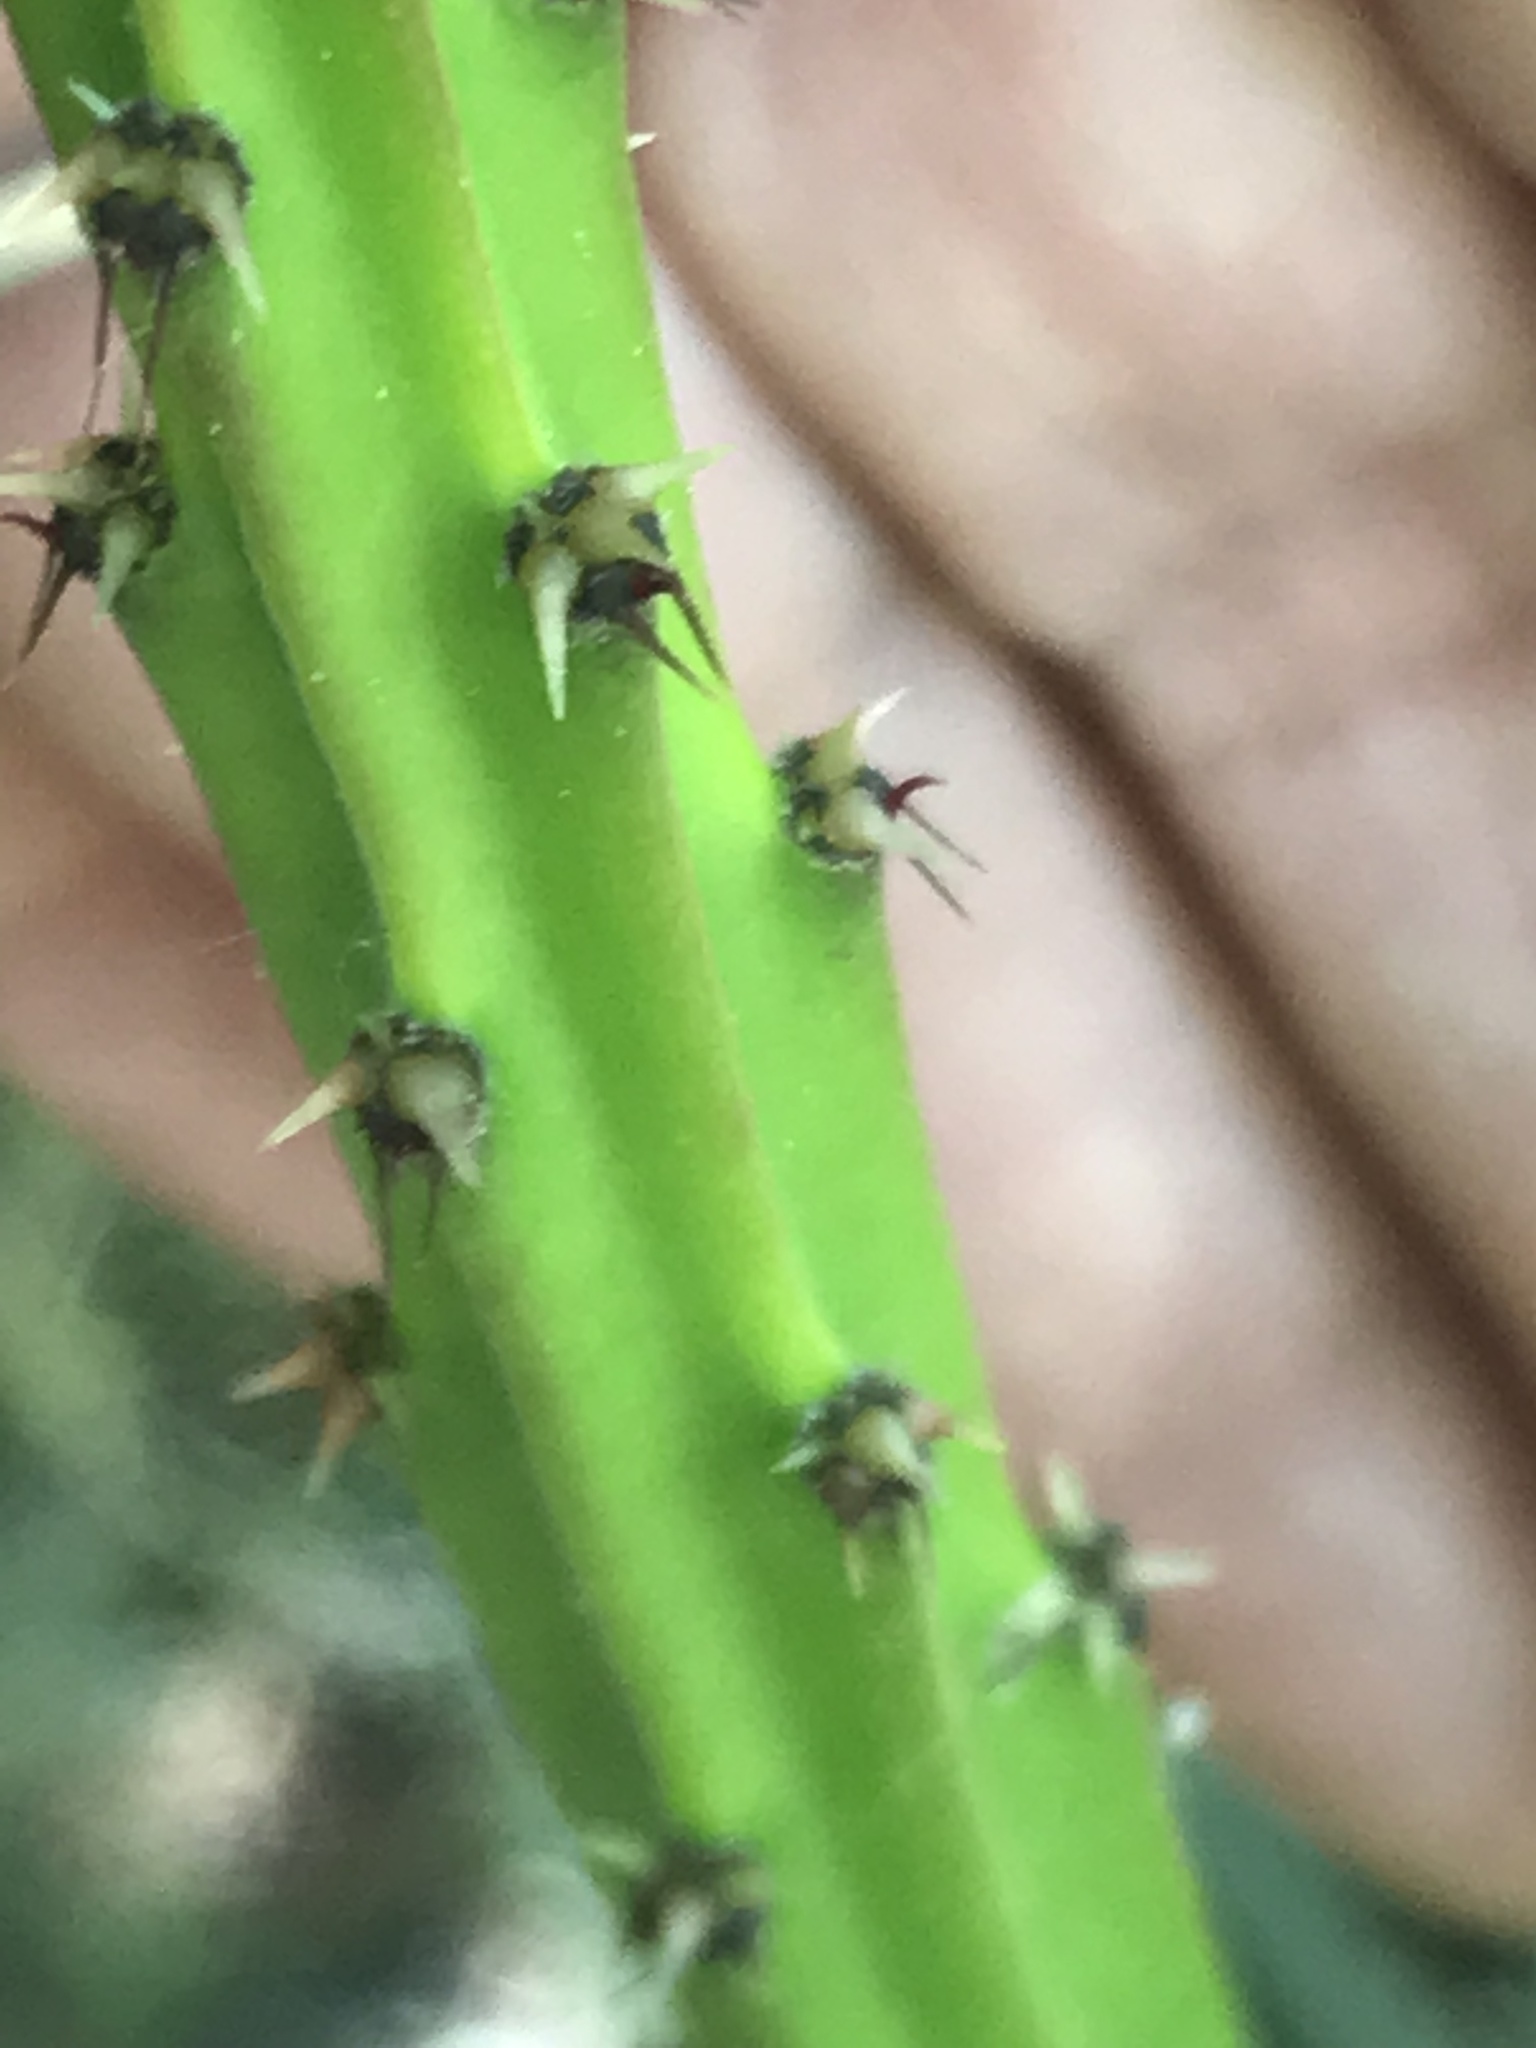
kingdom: Plantae
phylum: Tracheophyta
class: Magnoliopsida
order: Caryophyllales
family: Cactaceae
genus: Selenicereus
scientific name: Selenicereus spinulosus
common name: Nightblooming cereus
